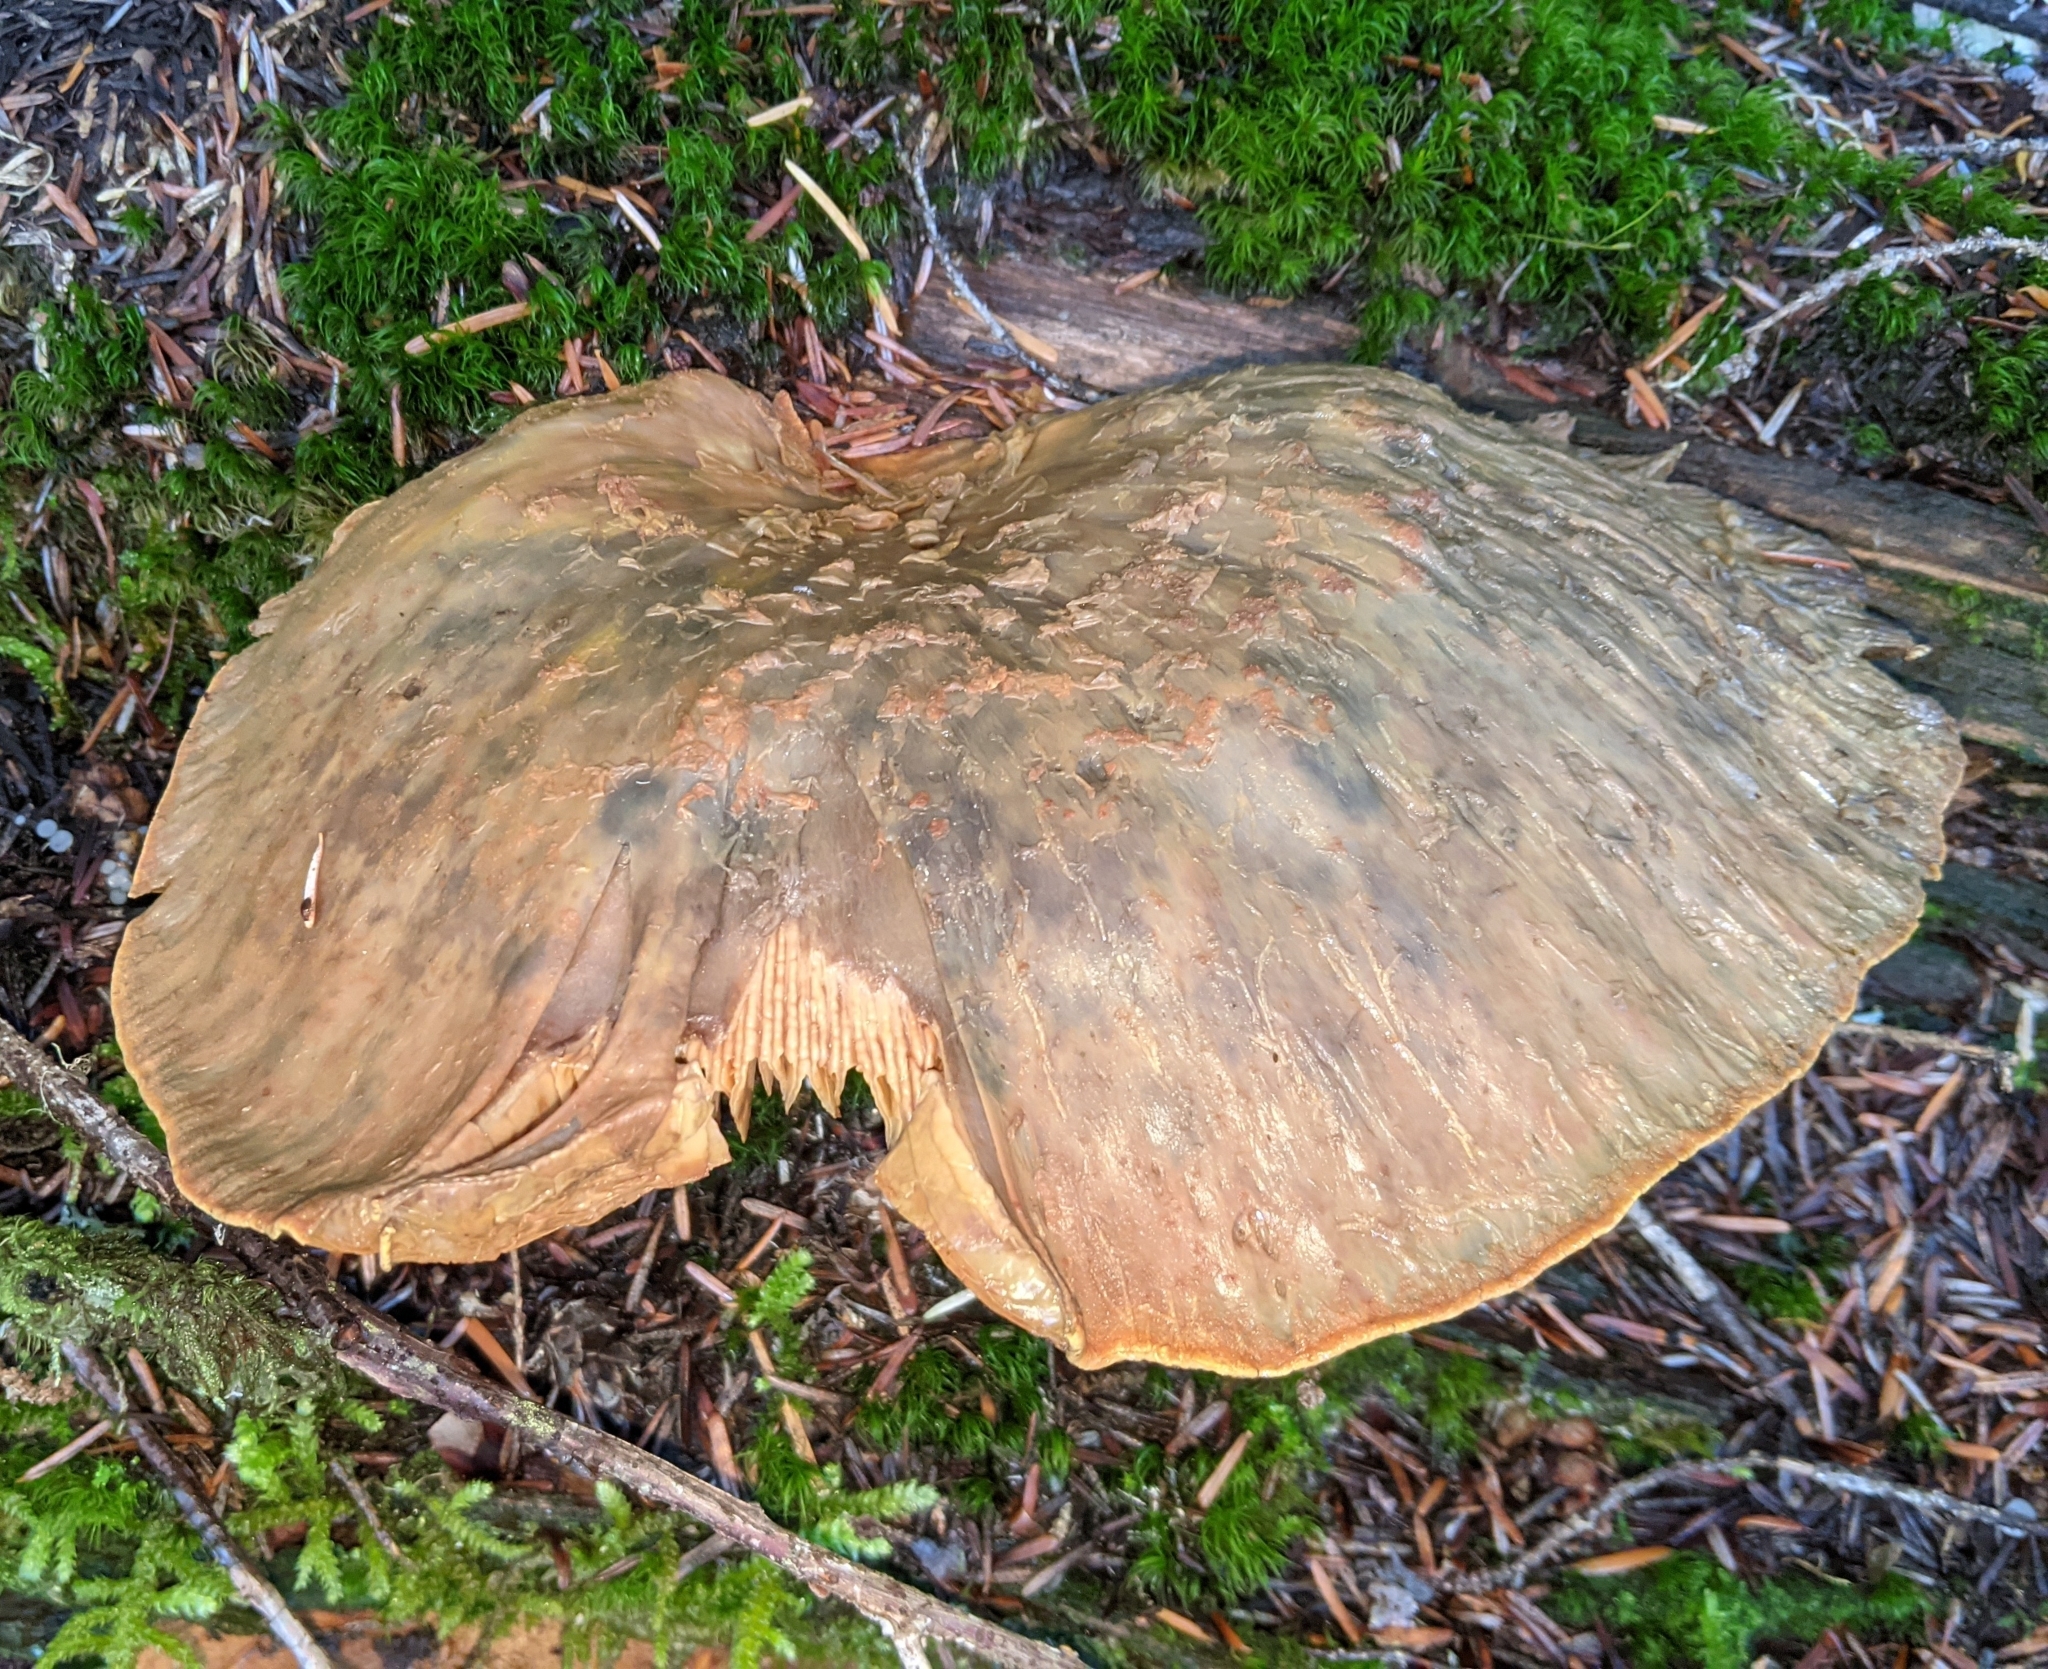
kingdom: Fungi
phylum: Basidiomycota
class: Agaricomycetes
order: Boletales
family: Tapinellaceae
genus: Tapinella
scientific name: Tapinella atrotomentosa
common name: Velvet rollrim
